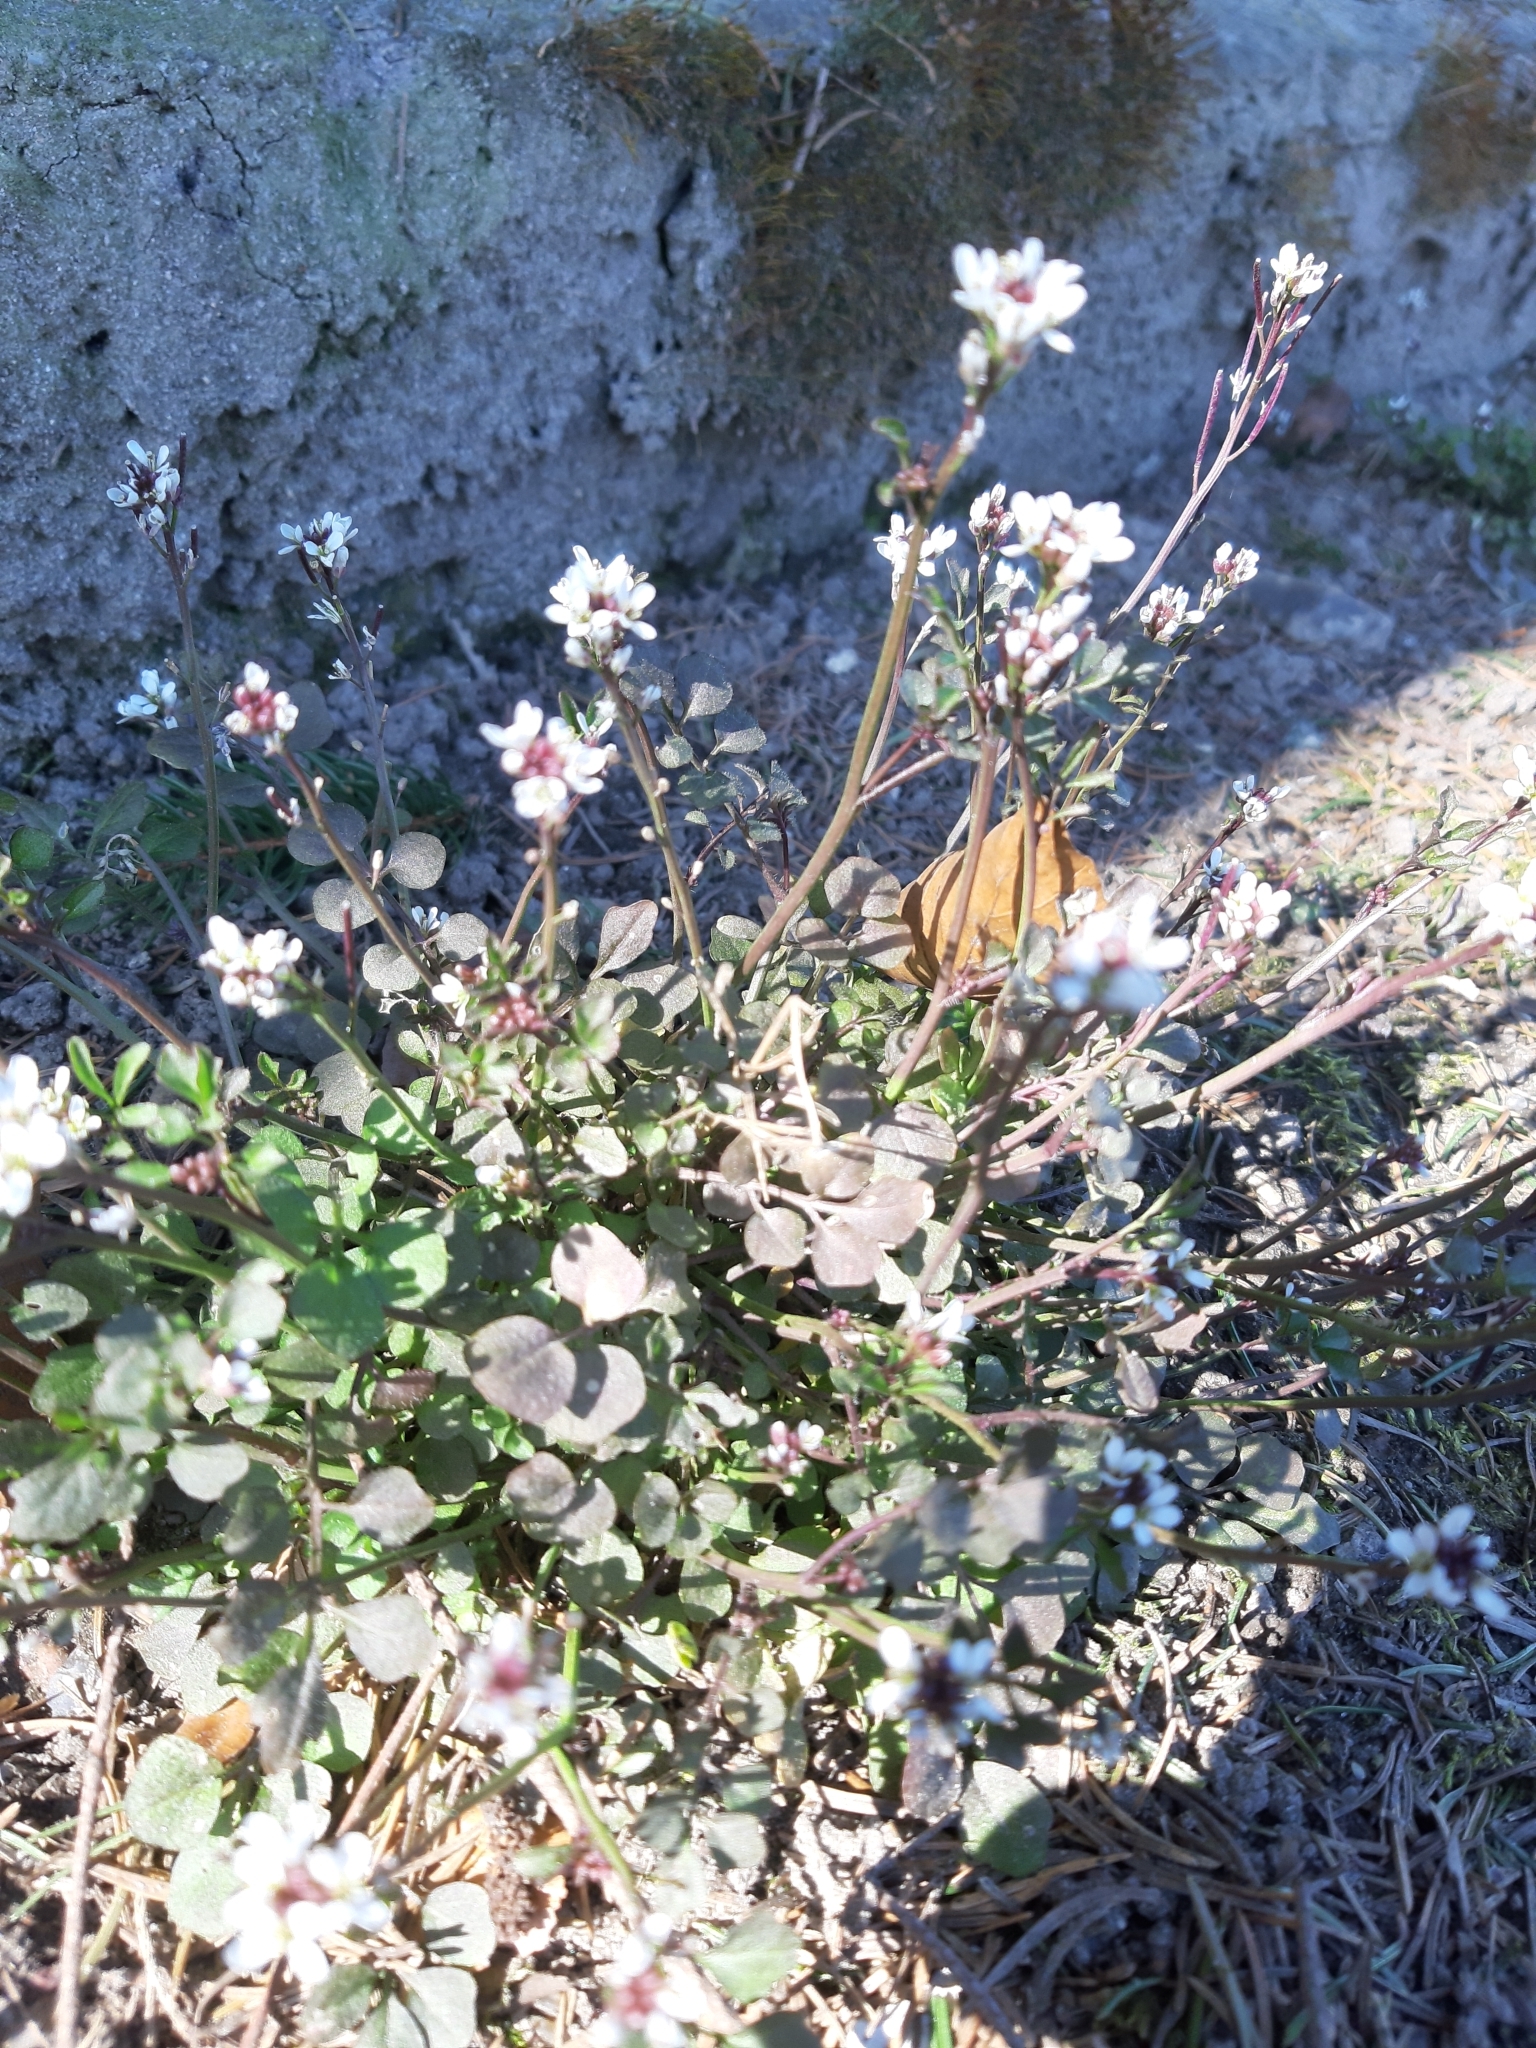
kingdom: Plantae
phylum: Tracheophyta
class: Magnoliopsida
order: Brassicales
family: Brassicaceae
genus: Cardamine
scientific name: Cardamine hirsuta
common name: Hairy bittercress
